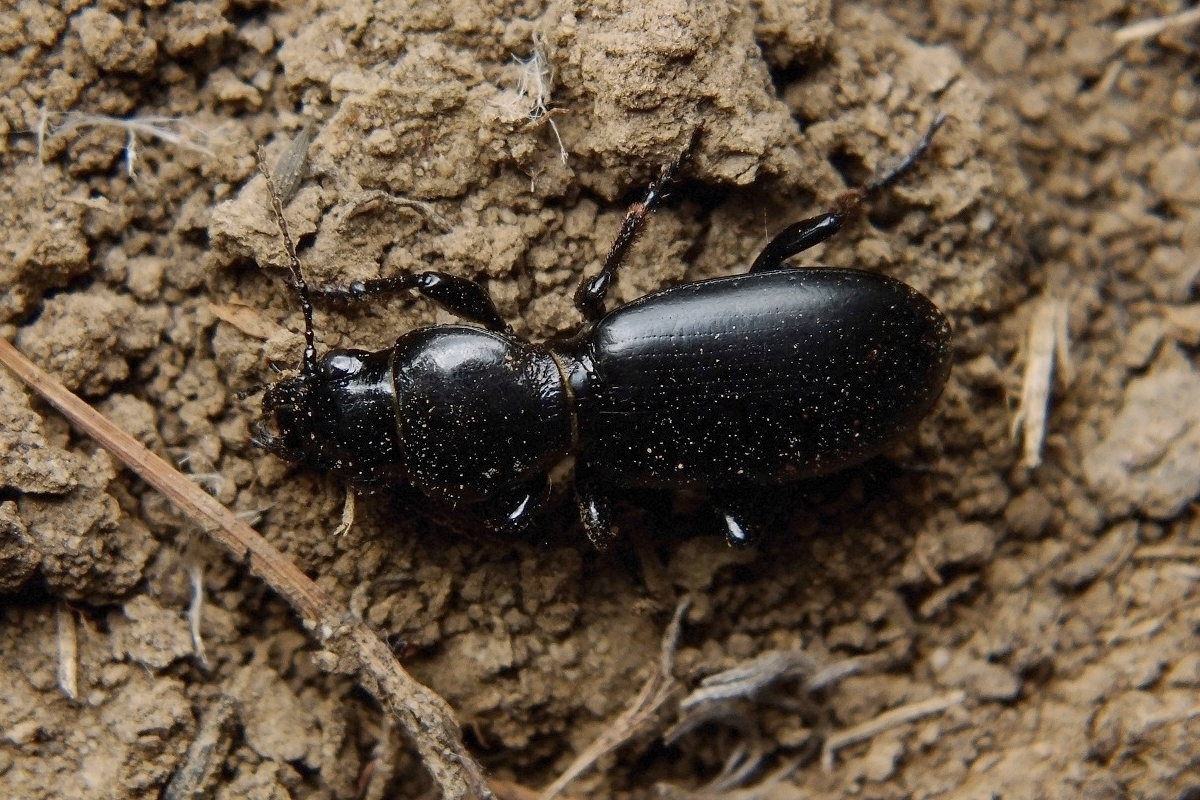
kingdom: Animalia
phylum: Arthropoda
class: Insecta
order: Coleoptera
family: Carabidae
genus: Broscus
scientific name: Broscus semistriatus
